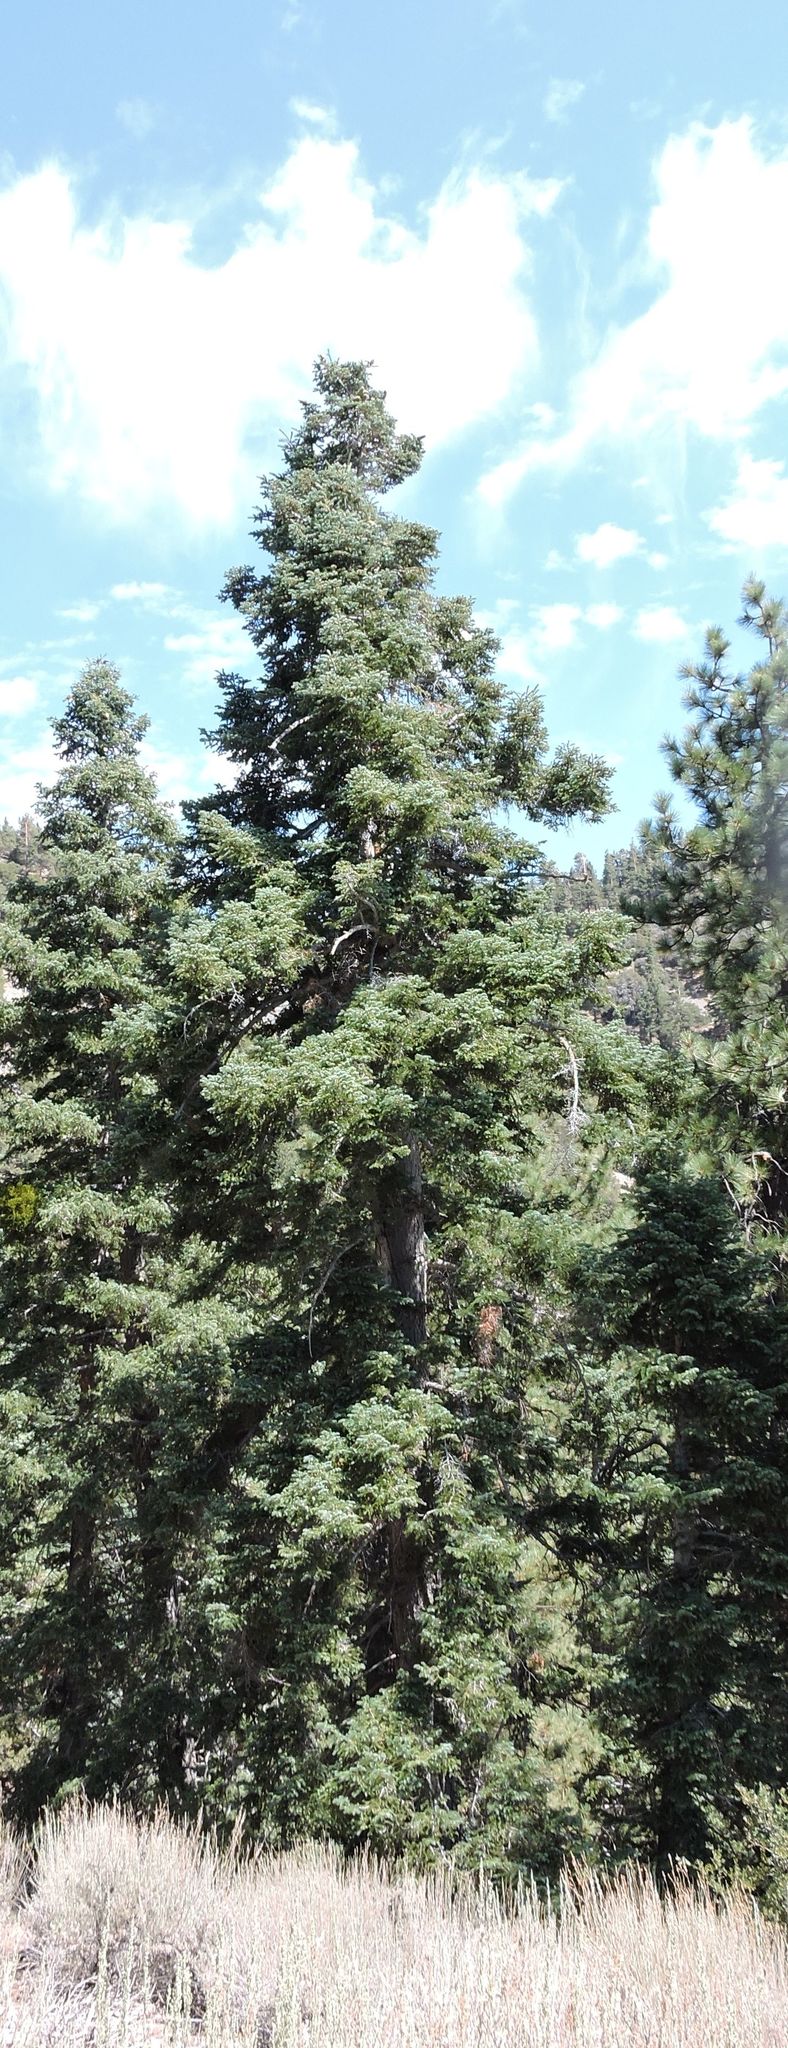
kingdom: Plantae
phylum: Tracheophyta
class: Pinopsida
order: Pinales
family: Pinaceae
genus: Abies
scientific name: Abies concolor
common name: Colorado fir
